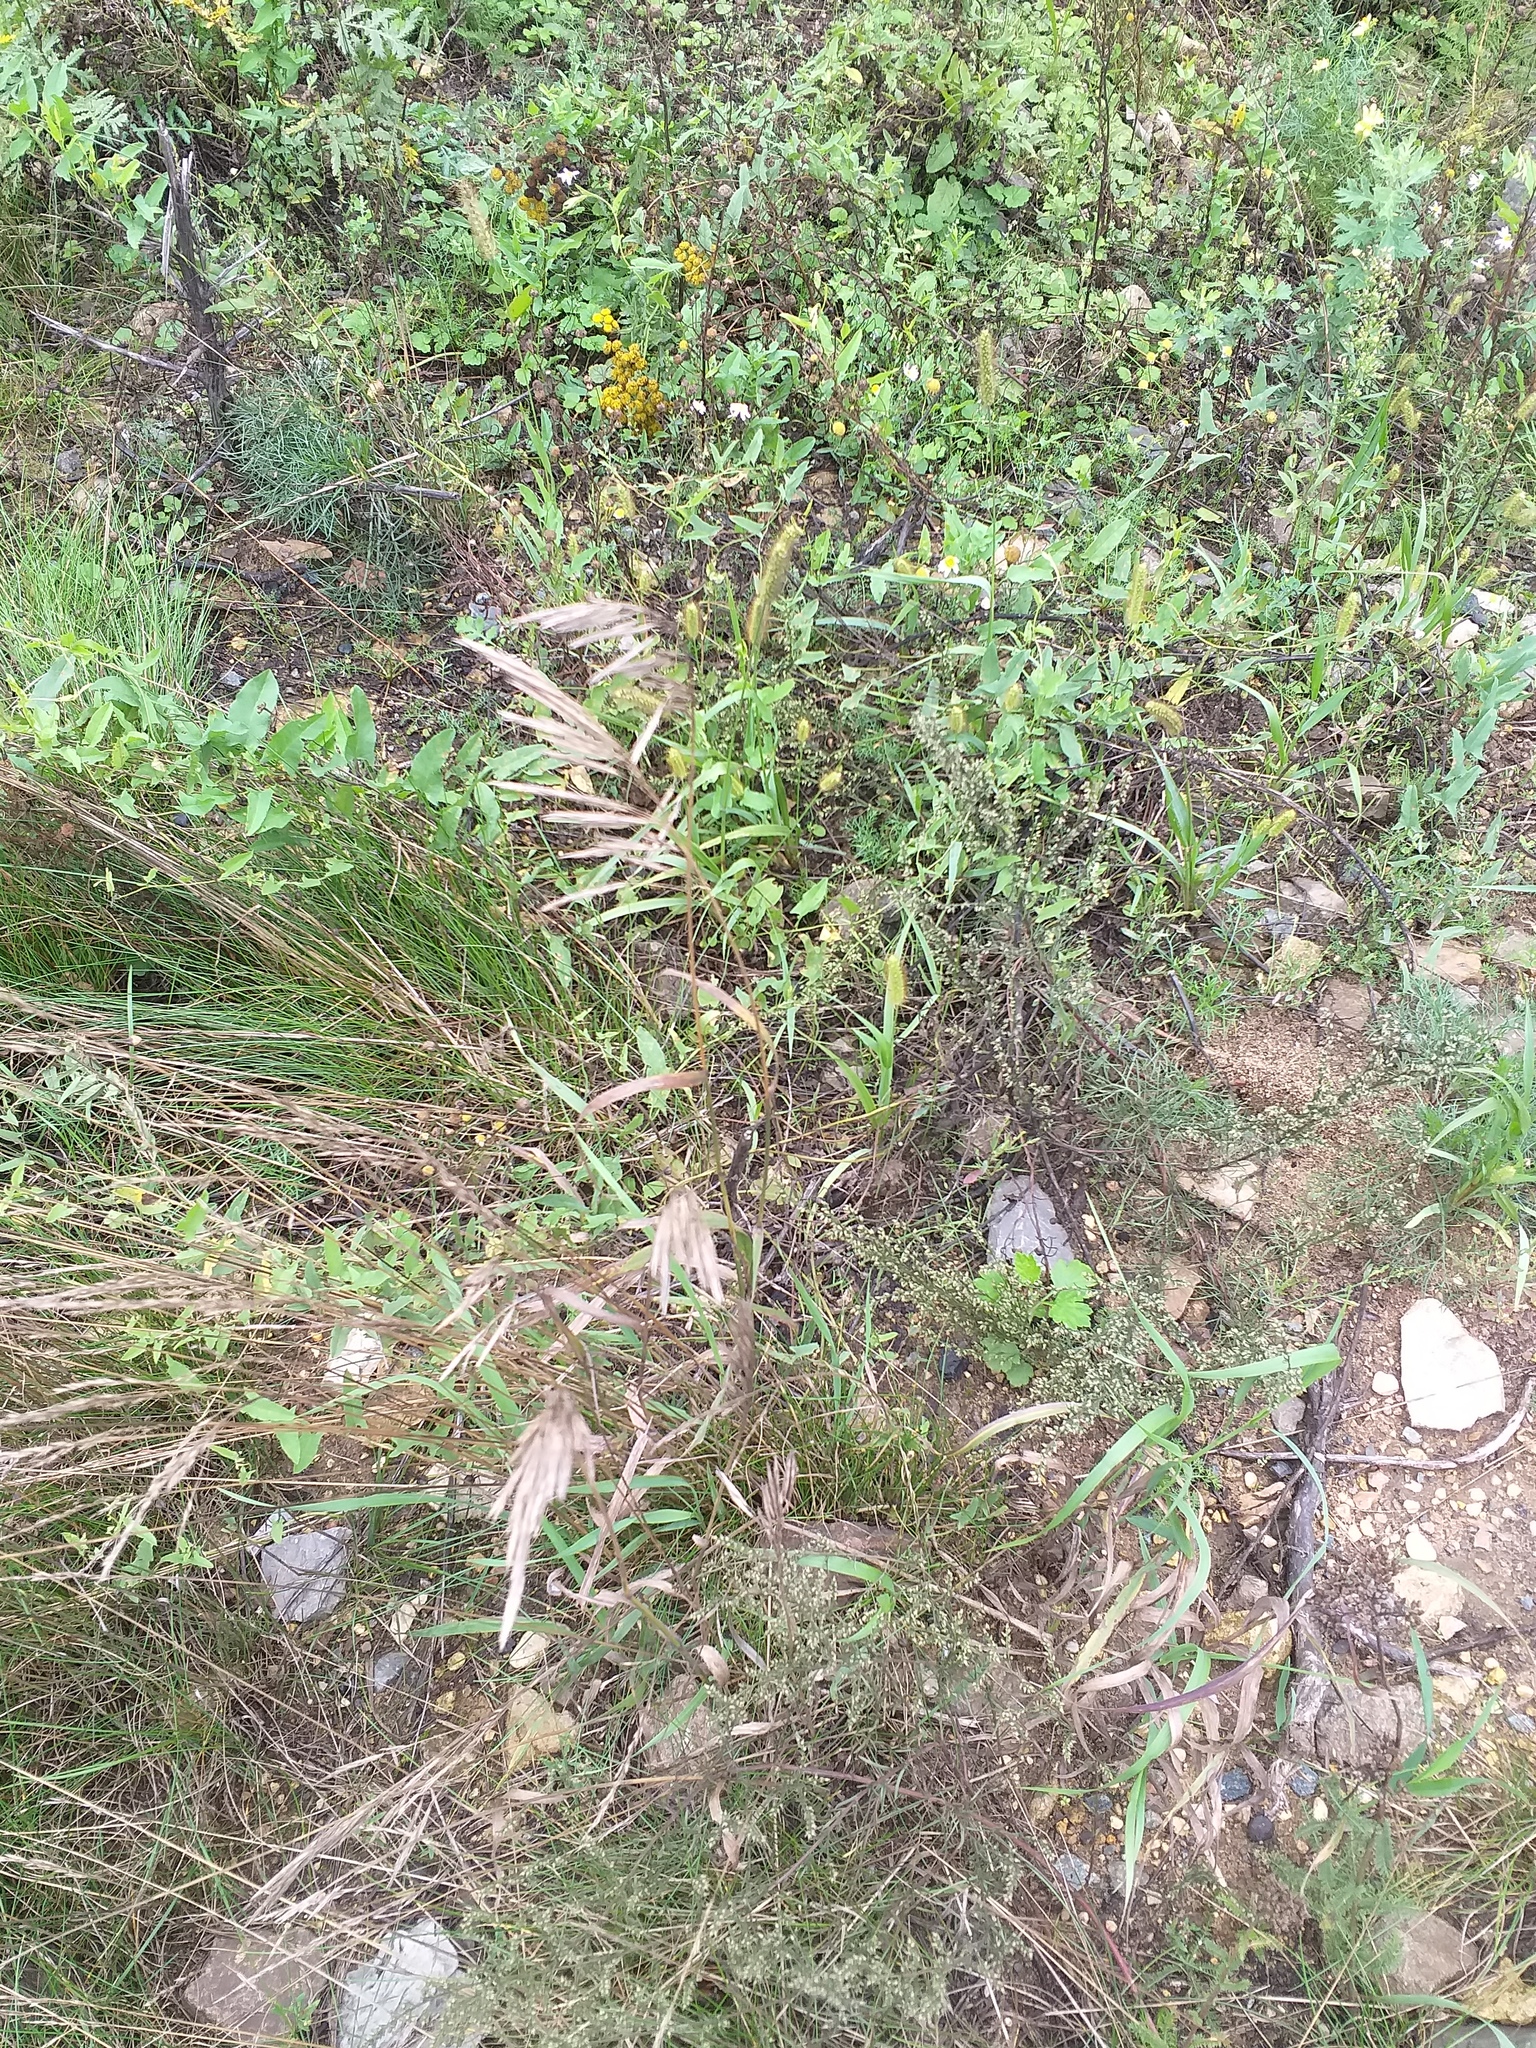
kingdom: Plantae
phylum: Tracheophyta
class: Liliopsida
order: Poales
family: Poaceae
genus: Bromus
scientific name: Bromus inermis
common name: Smooth brome
